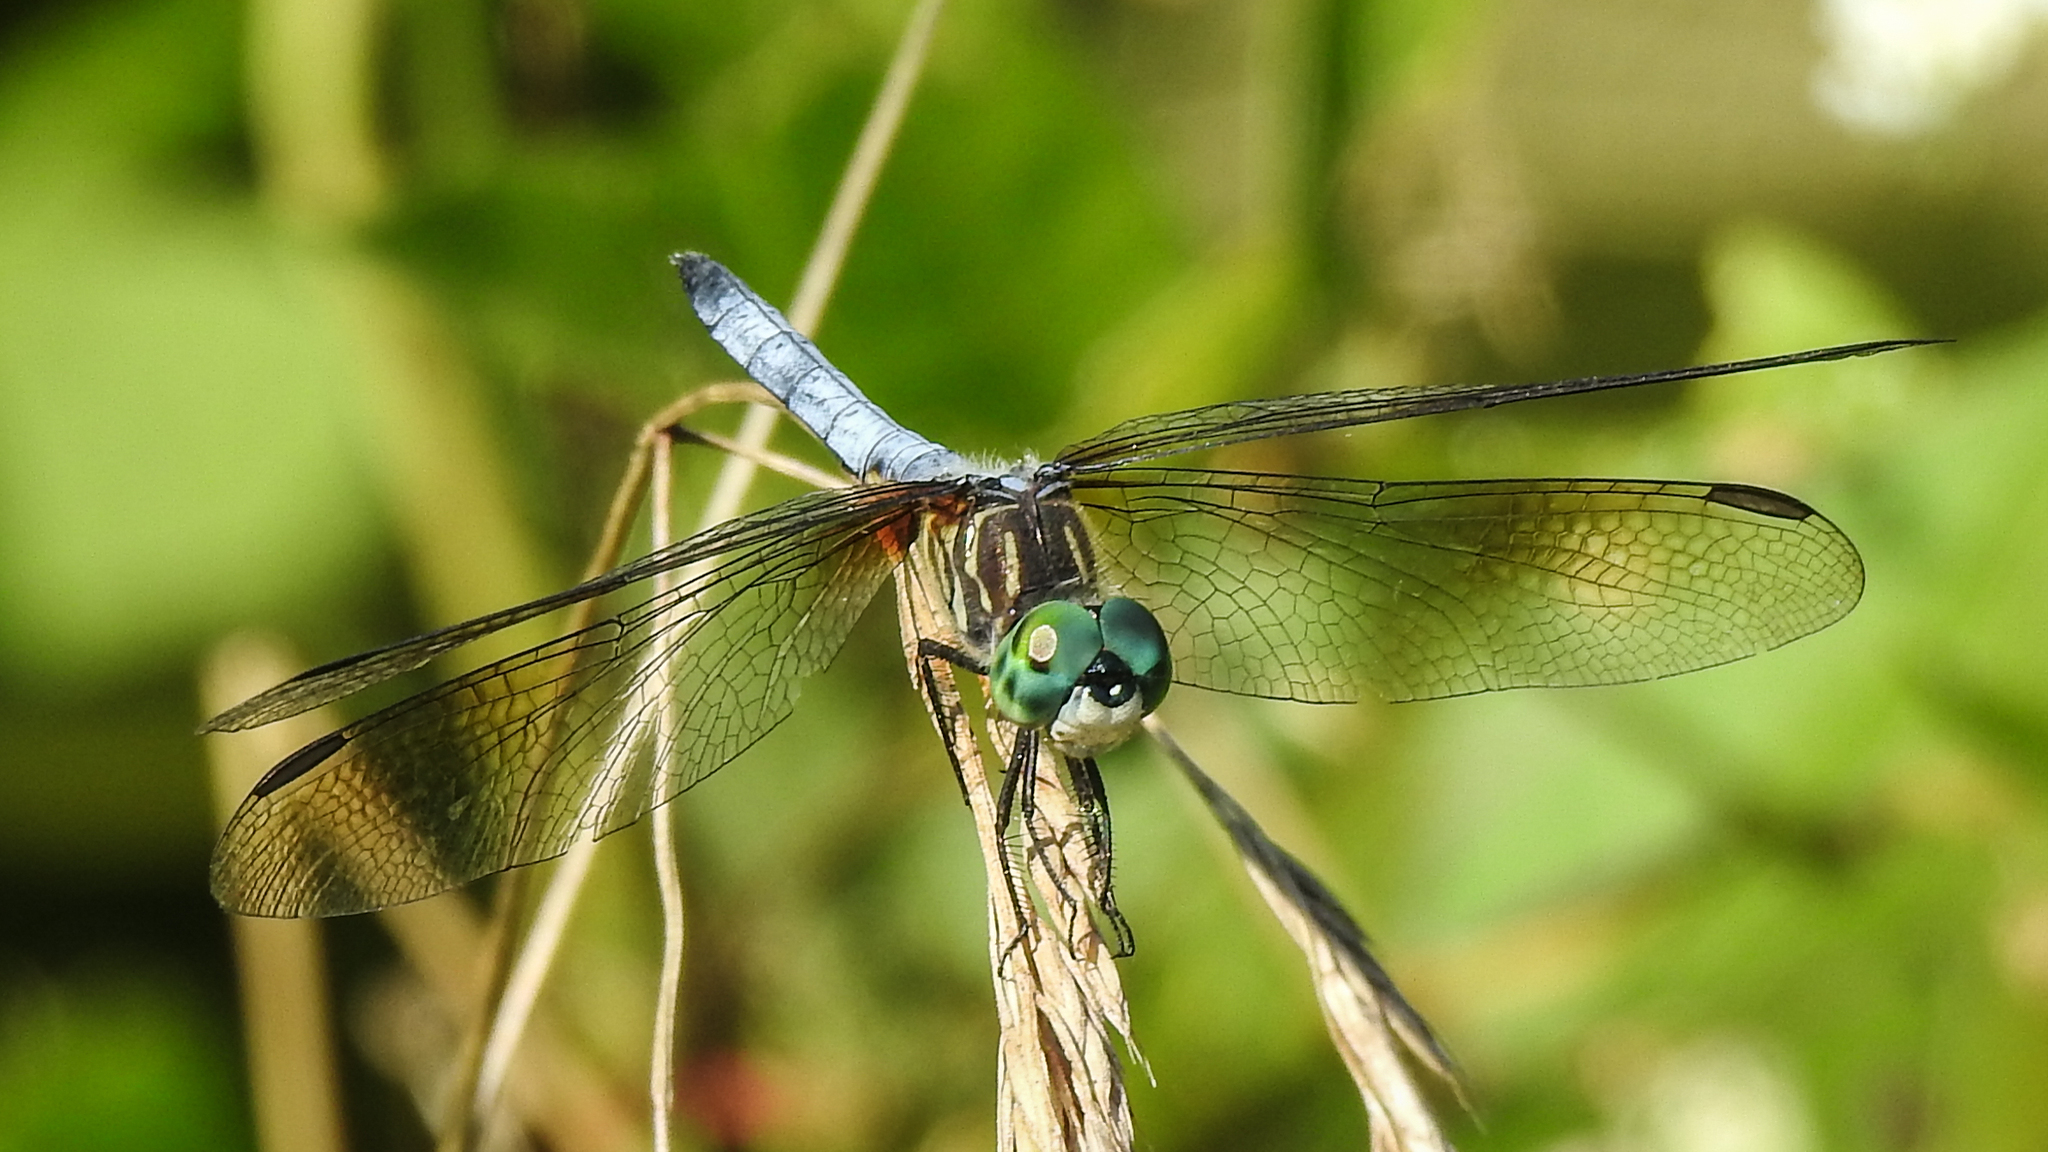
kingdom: Animalia
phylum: Arthropoda
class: Insecta
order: Odonata
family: Libellulidae
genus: Pachydiplax
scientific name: Pachydiplax longipennis
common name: Blue dasher
